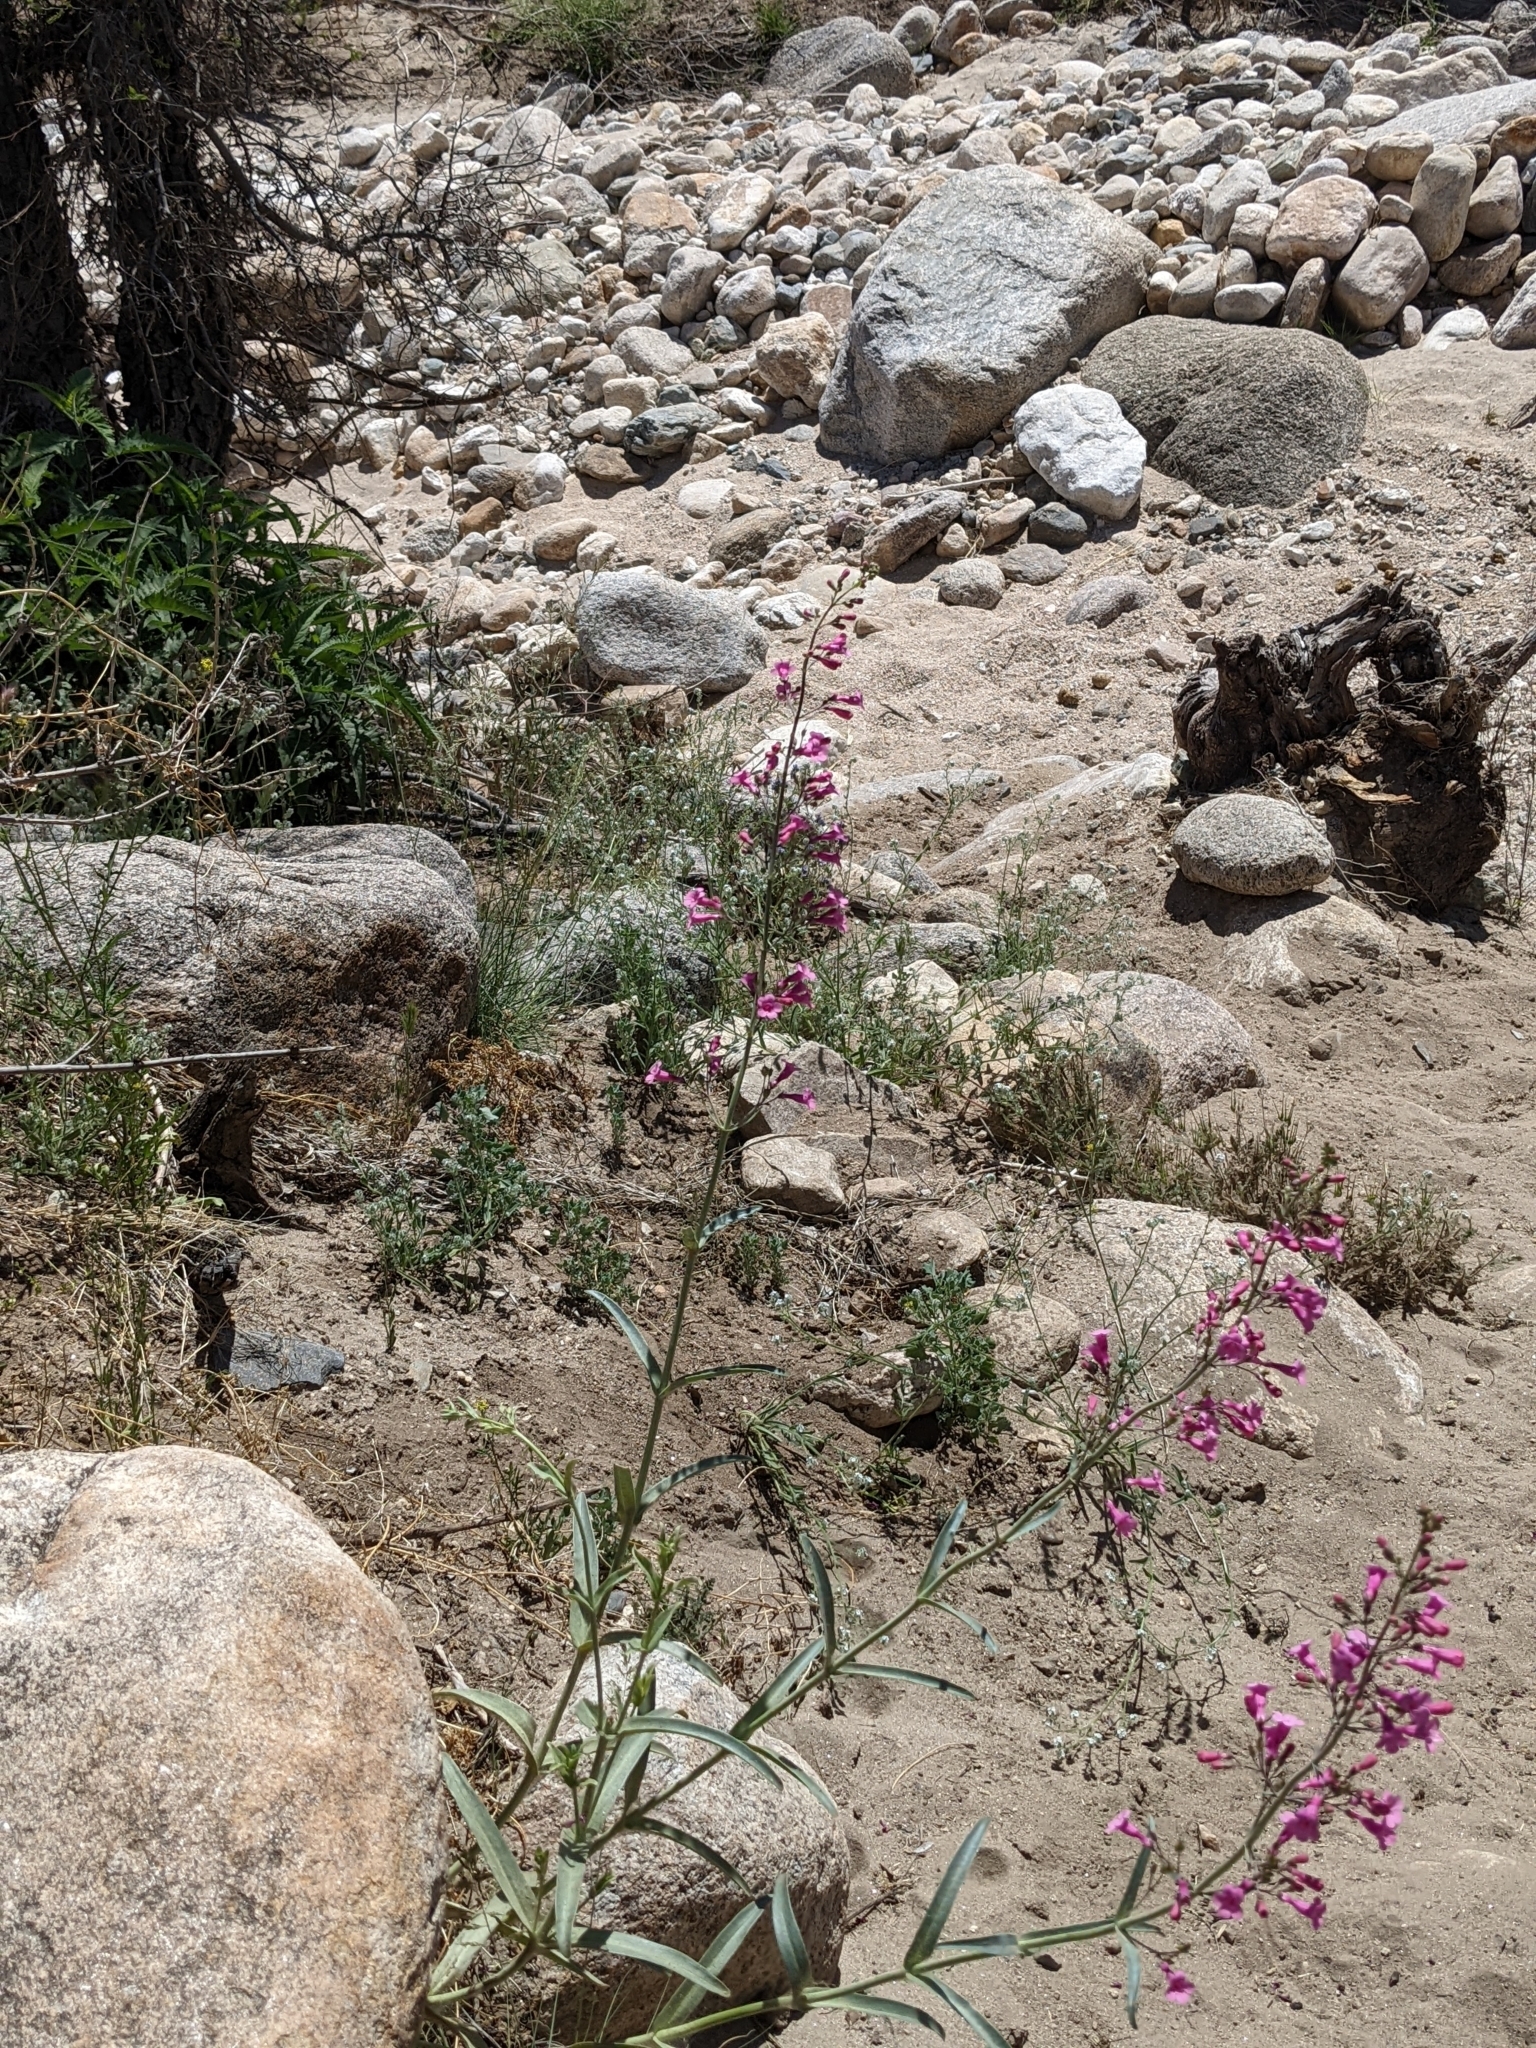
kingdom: Plantae
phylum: Tracheophyta
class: Magnoliopsida
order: Lamiales
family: Plantaginaceae
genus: Penstemon
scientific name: Penstemon parryi
